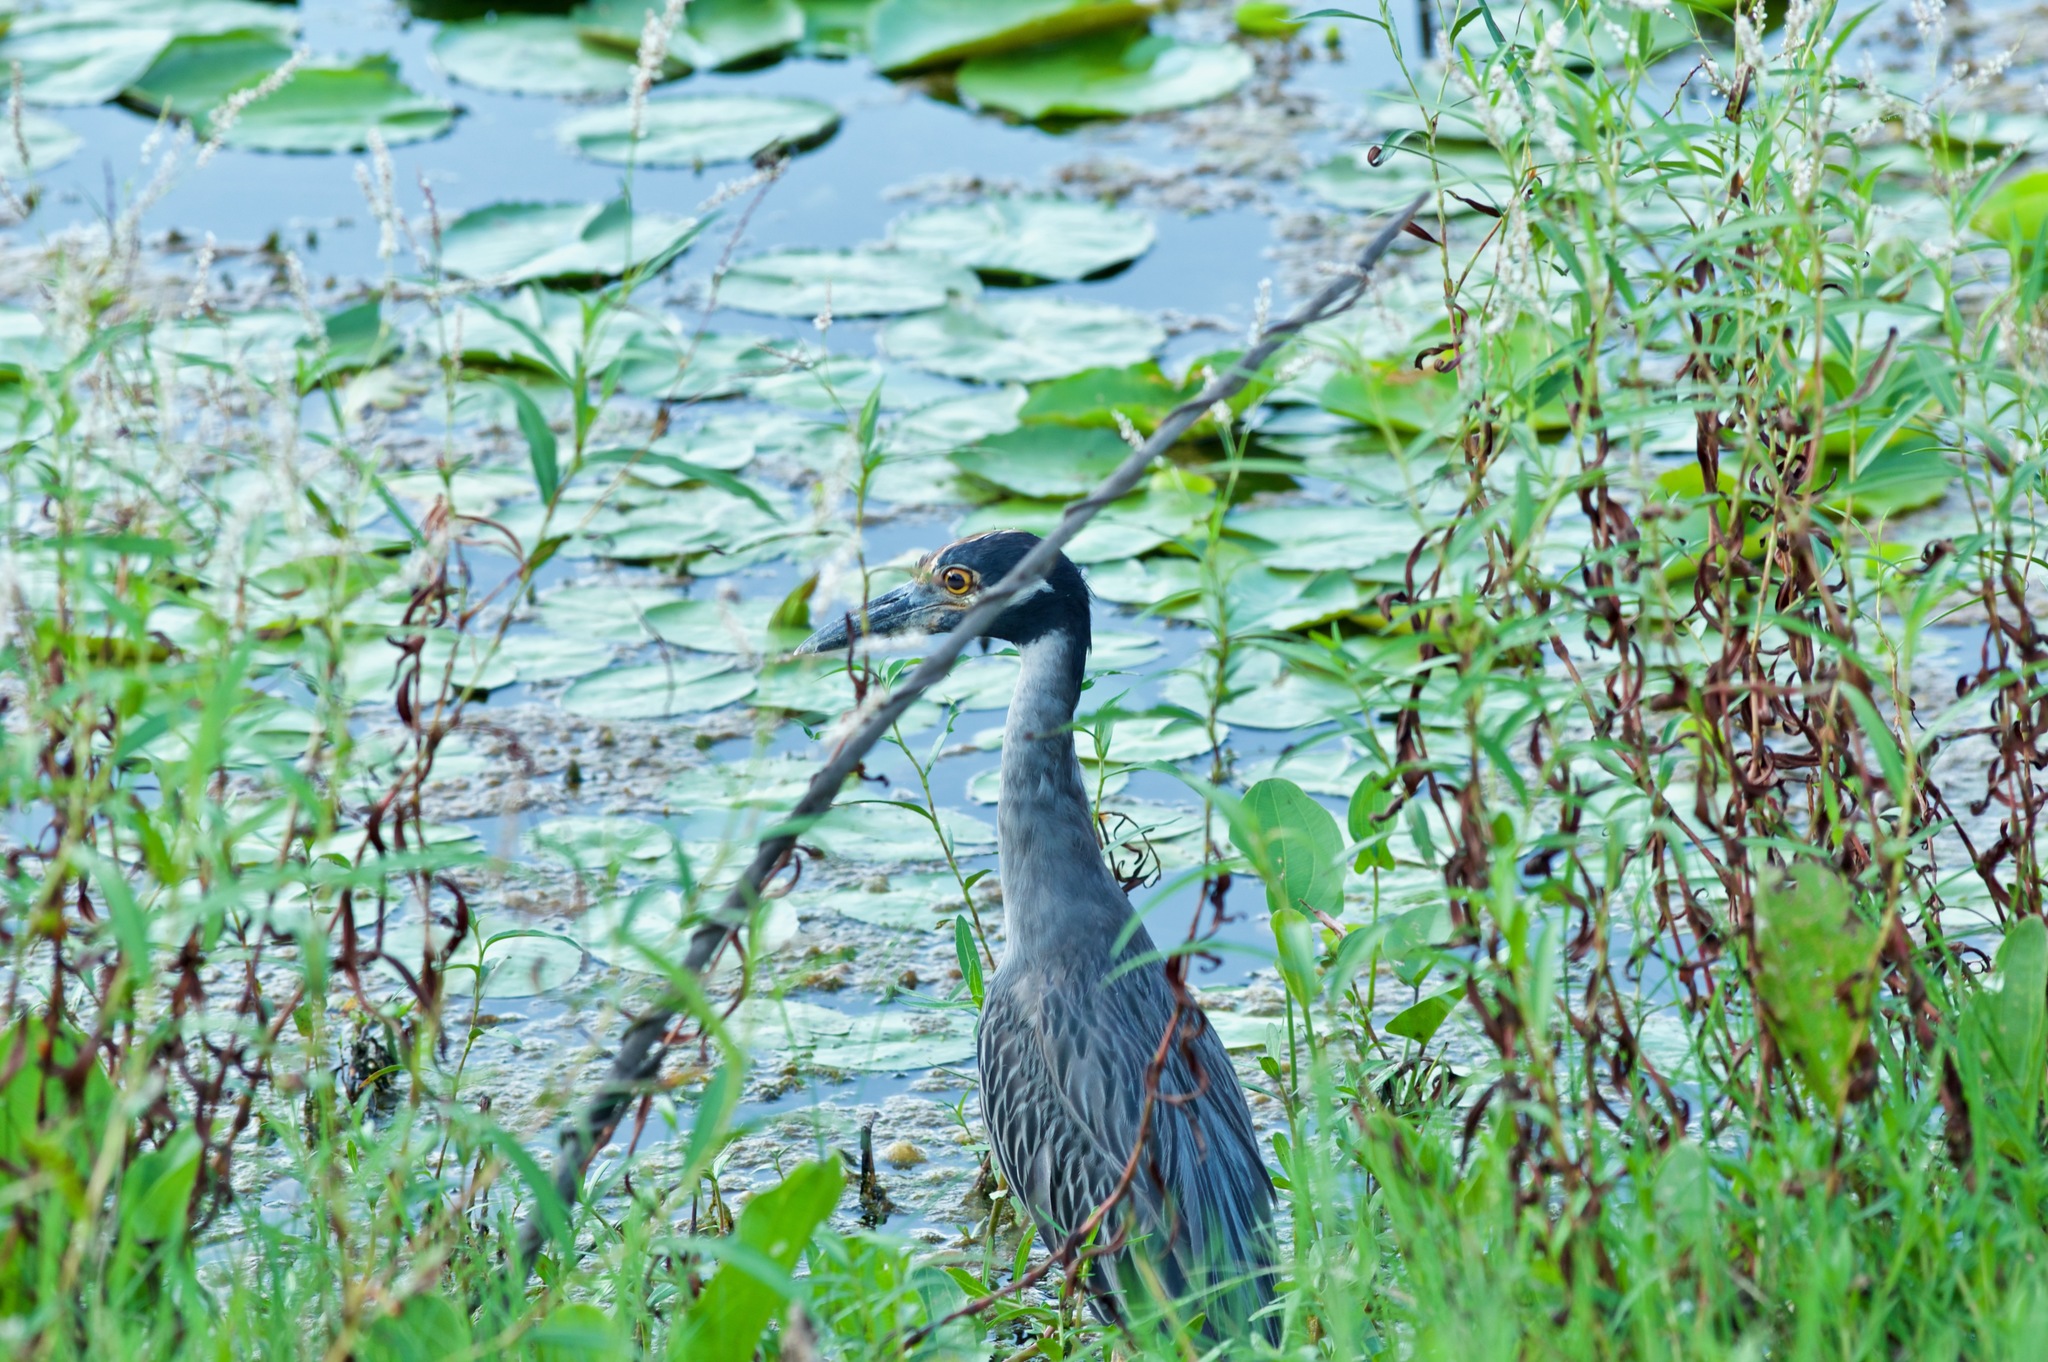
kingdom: Animalia
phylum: Chordata
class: Aves
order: Pelecaniformes
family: Ardeidae
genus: Nyctanassa
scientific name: Nyctanassa violacea
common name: Yellow-crowned night heron
